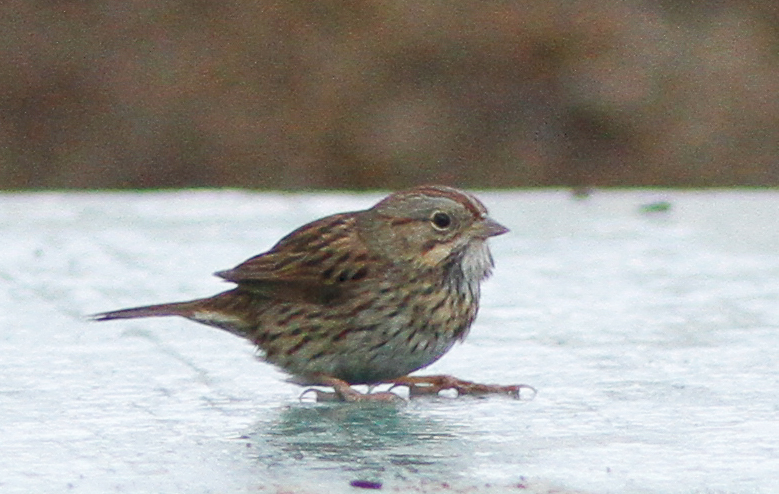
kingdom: Animalia
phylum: Chordata
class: Aves
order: Passeriformes
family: Passerellidae
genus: Melospiza
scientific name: Melospiza lincolnii
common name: Lincoln's sparrow
